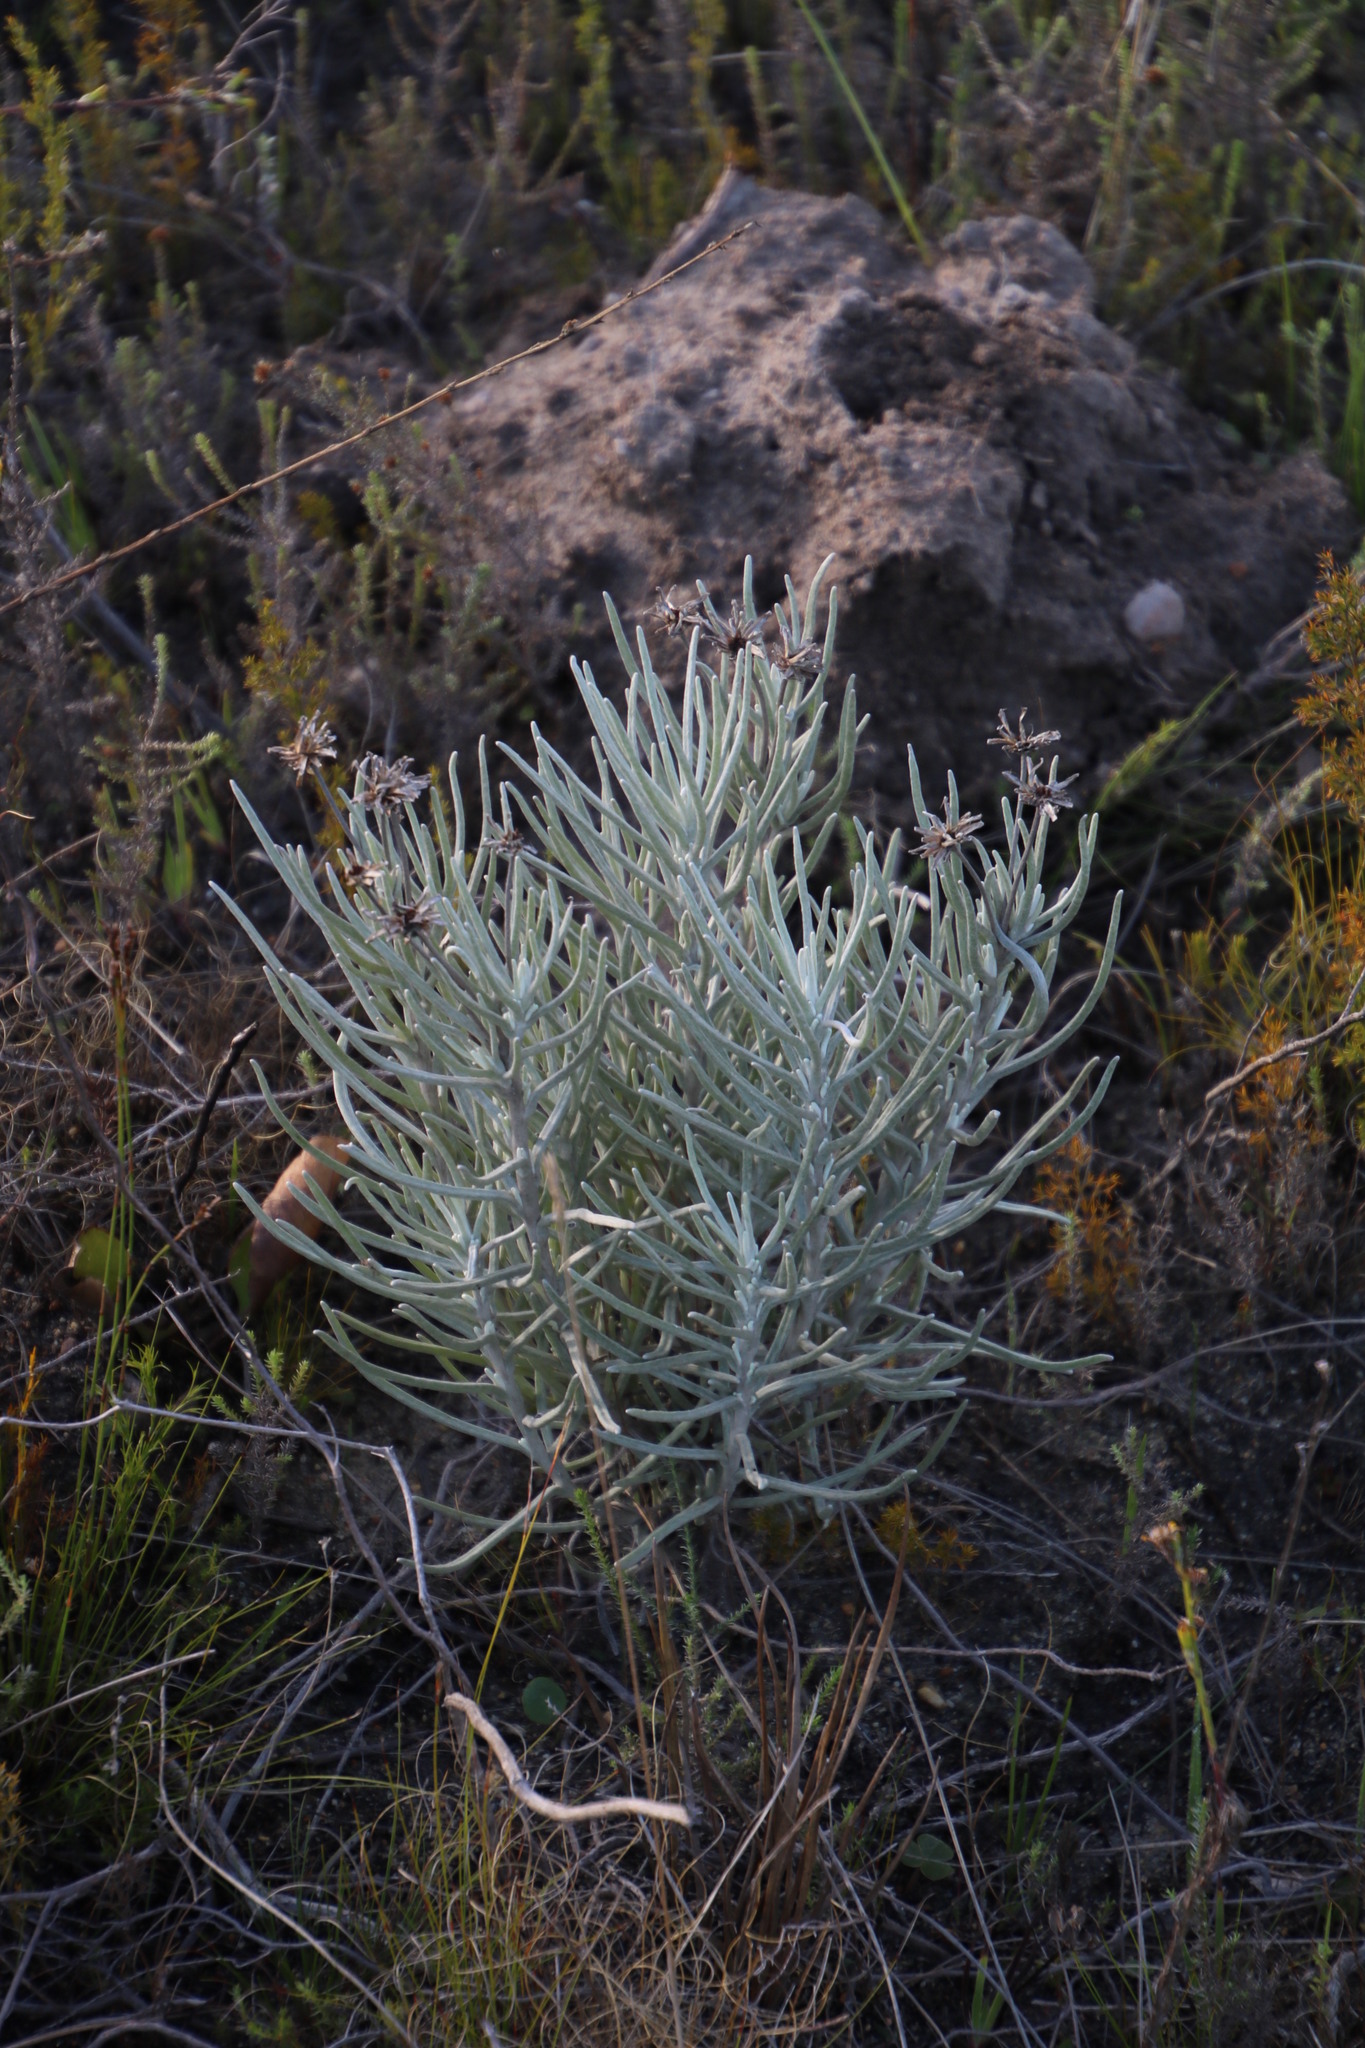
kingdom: Plantae
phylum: Tracheophyta
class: Magnoliopsida
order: Asterales
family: Asteraceae
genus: Syncarpha
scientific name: Syncarpha gnaphaloides
